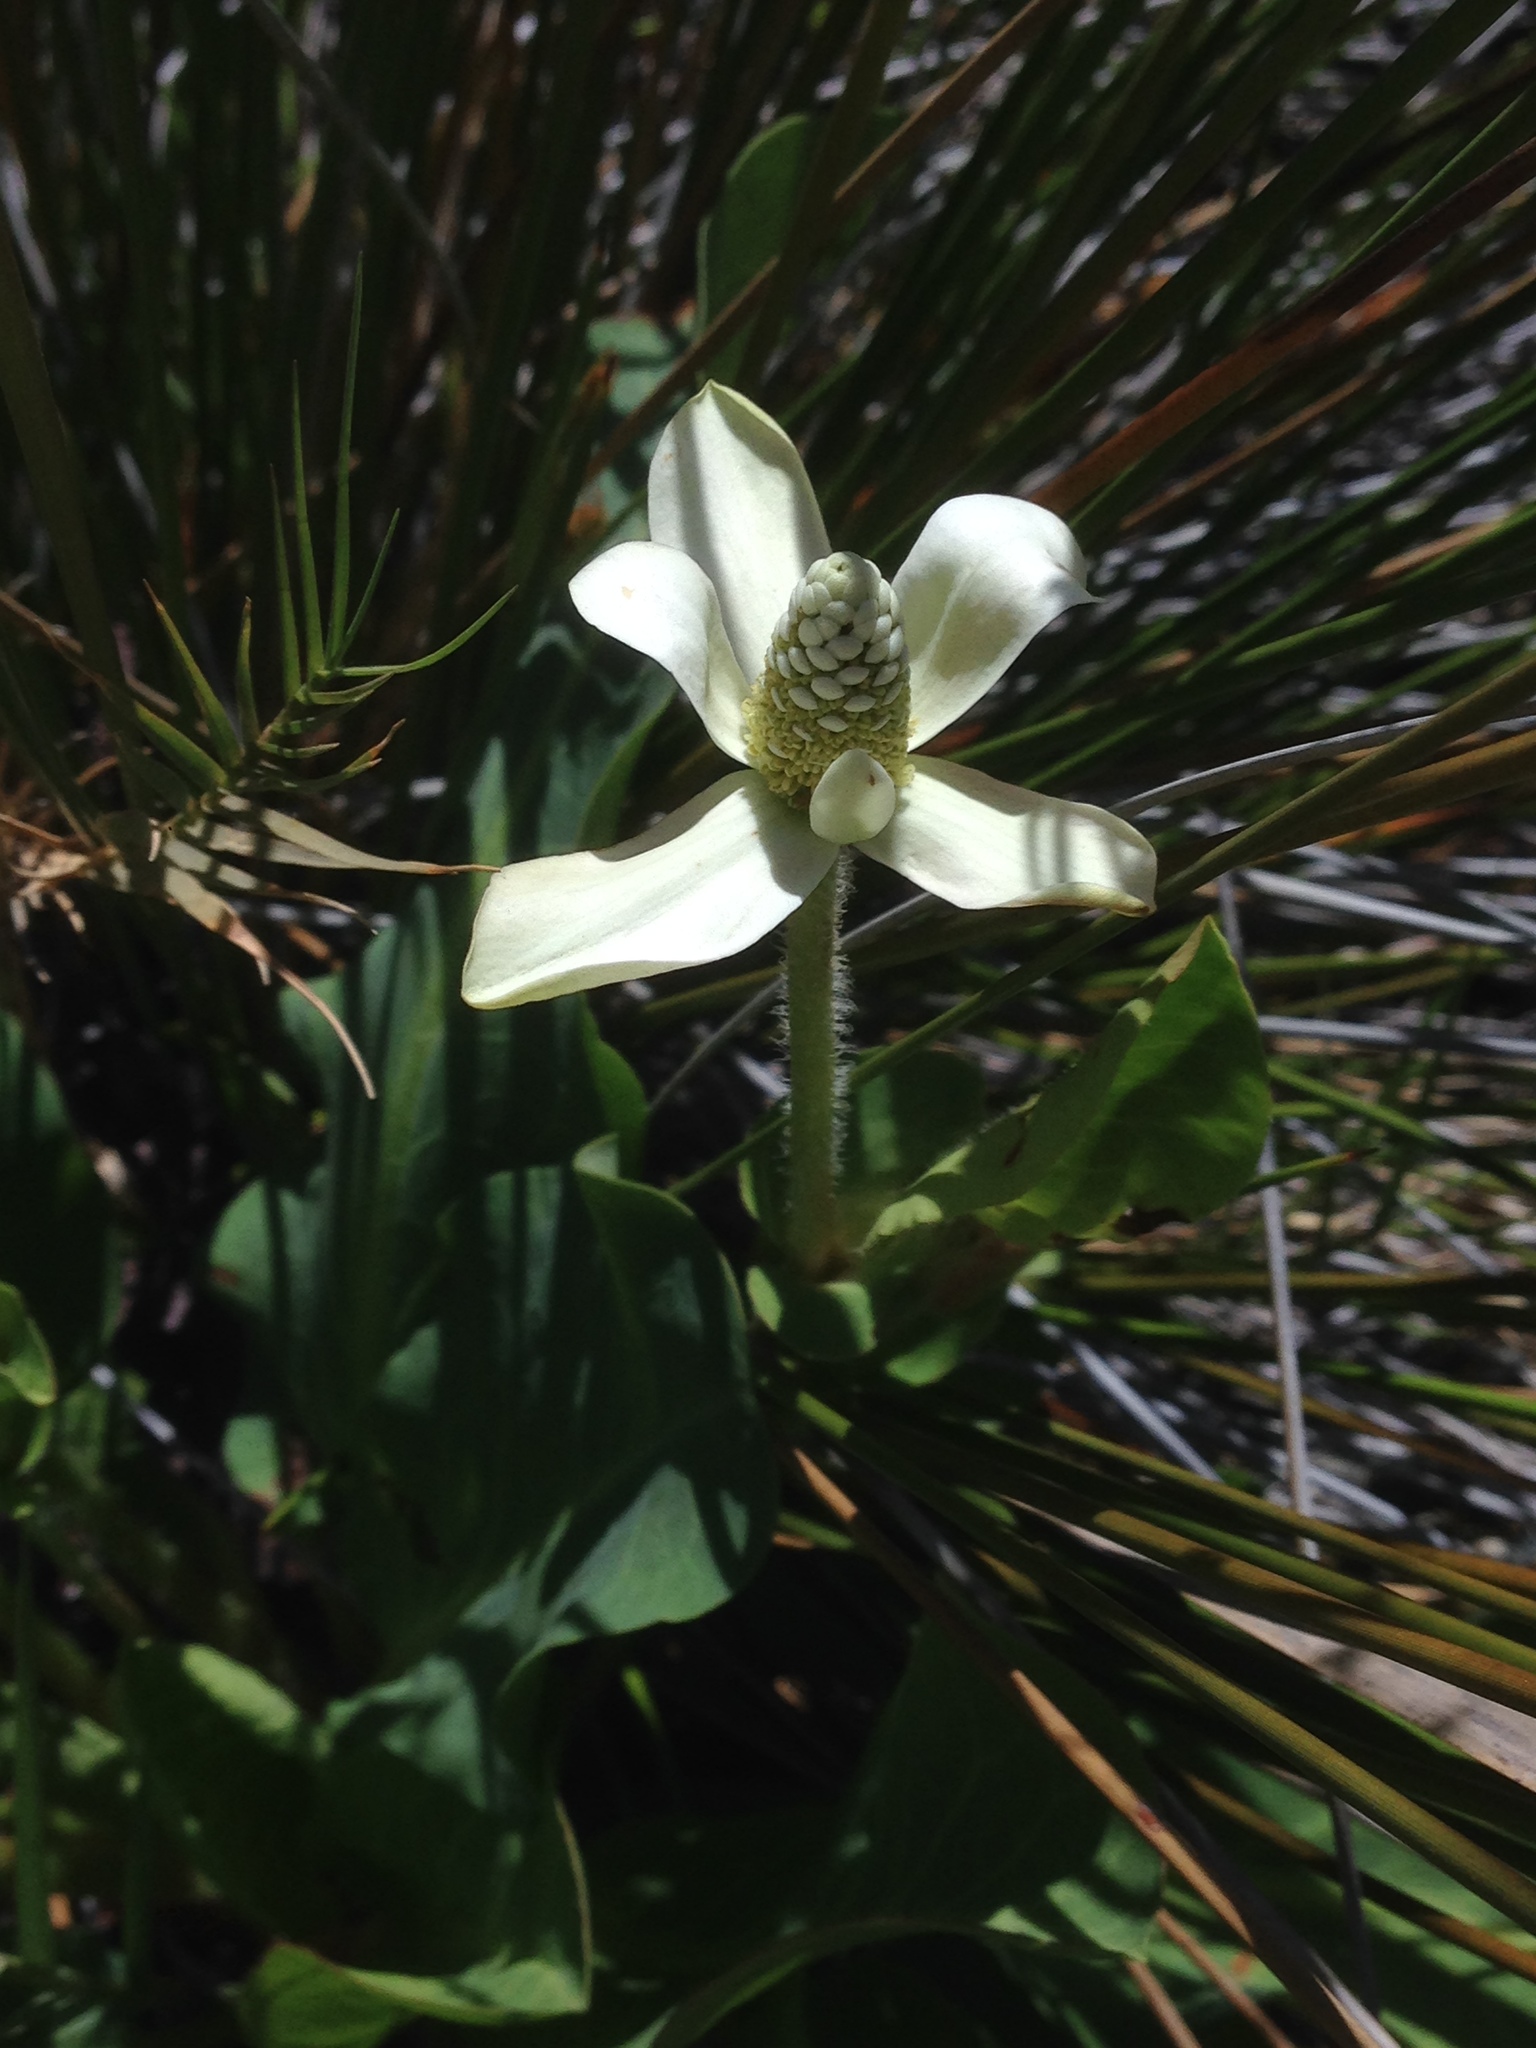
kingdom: Plantae
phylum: Tracheophyta
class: Magnoliopsida
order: Piperales
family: Saururaceae
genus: Anemopsis
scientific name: Anemopsis californica
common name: Apache-beads
